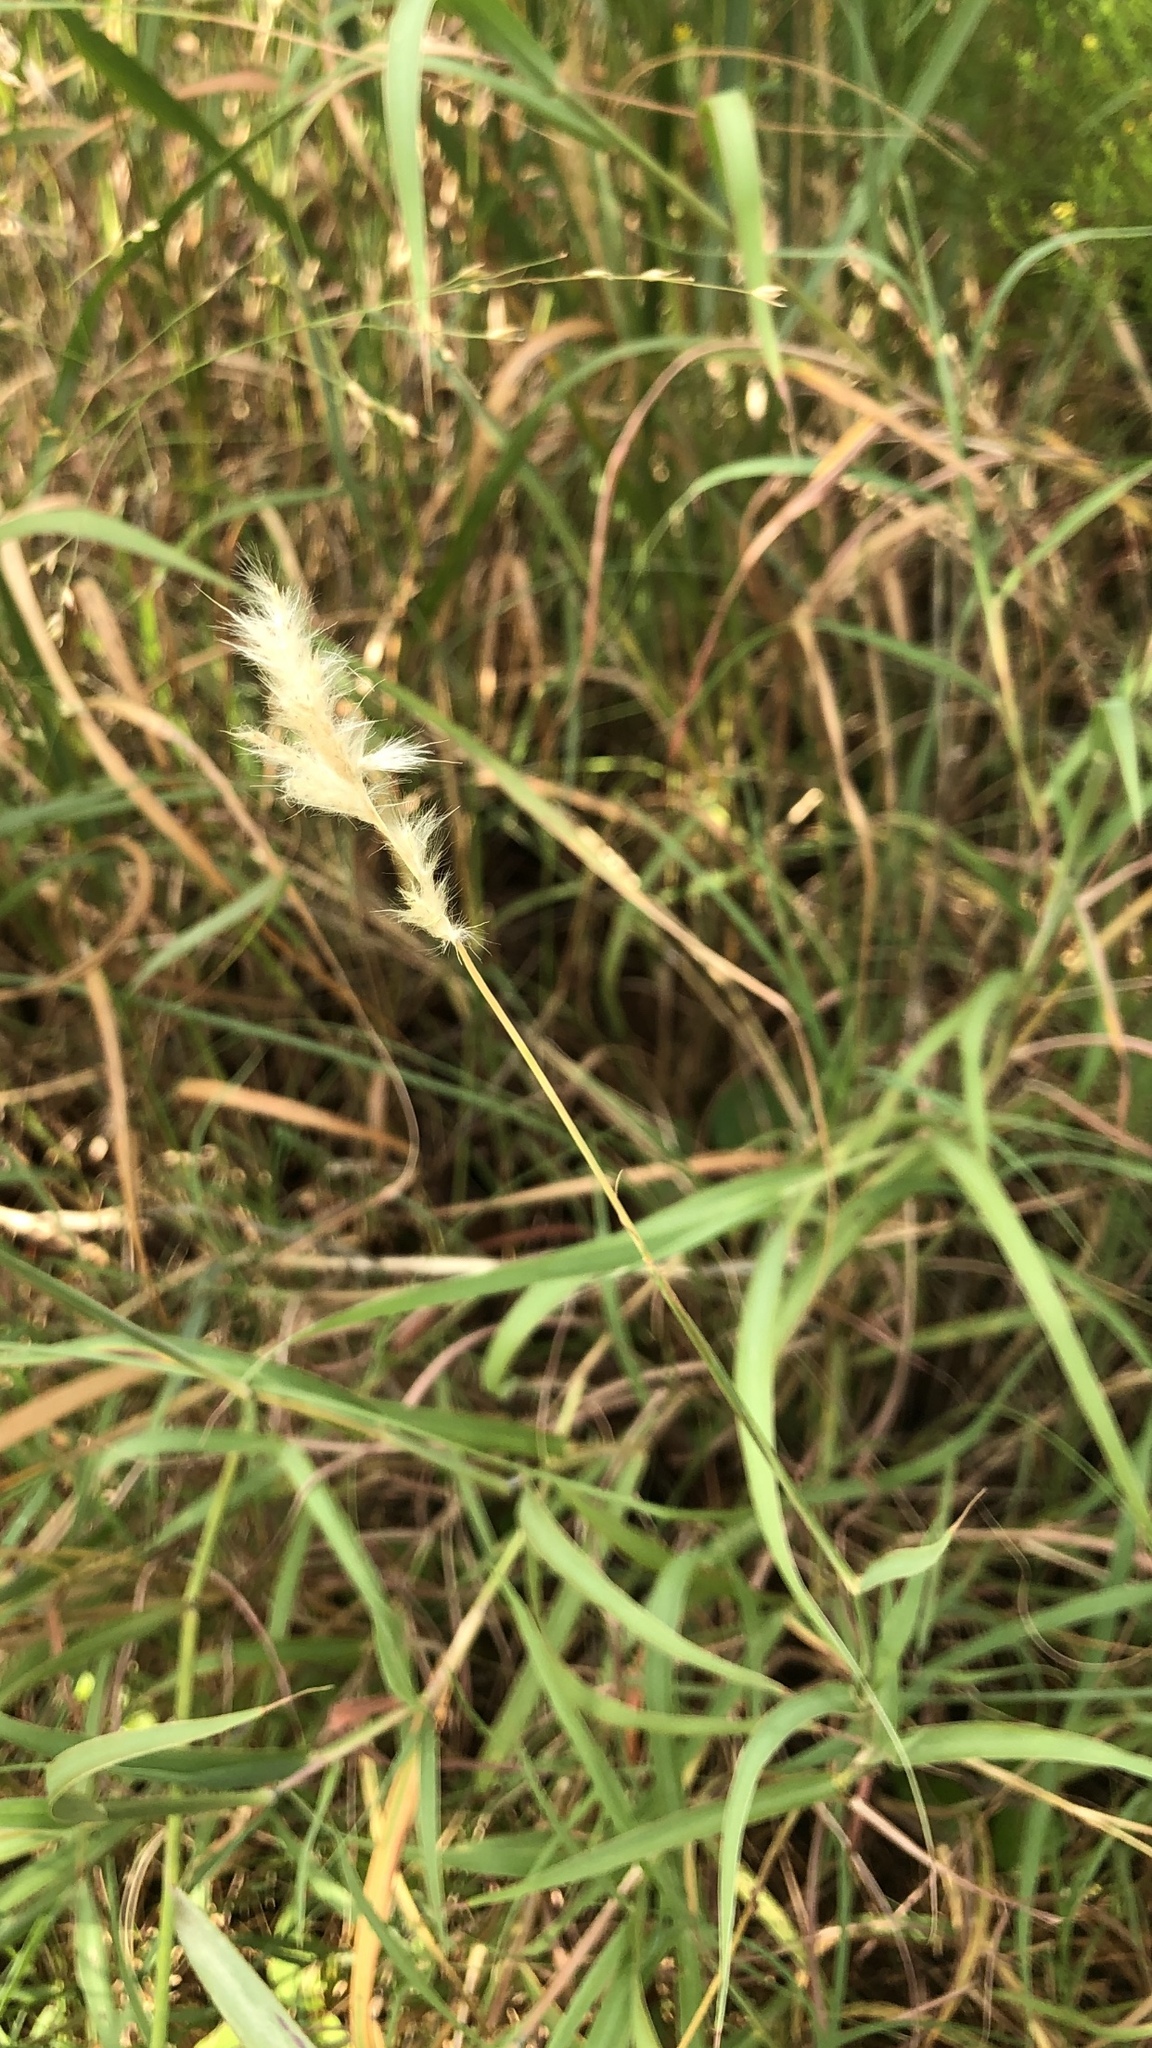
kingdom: Plantae
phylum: Tracheophyta
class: Liliopsida
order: Poales
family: Poaceae
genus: Bothriochloa
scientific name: Bothriochloa torreyana
